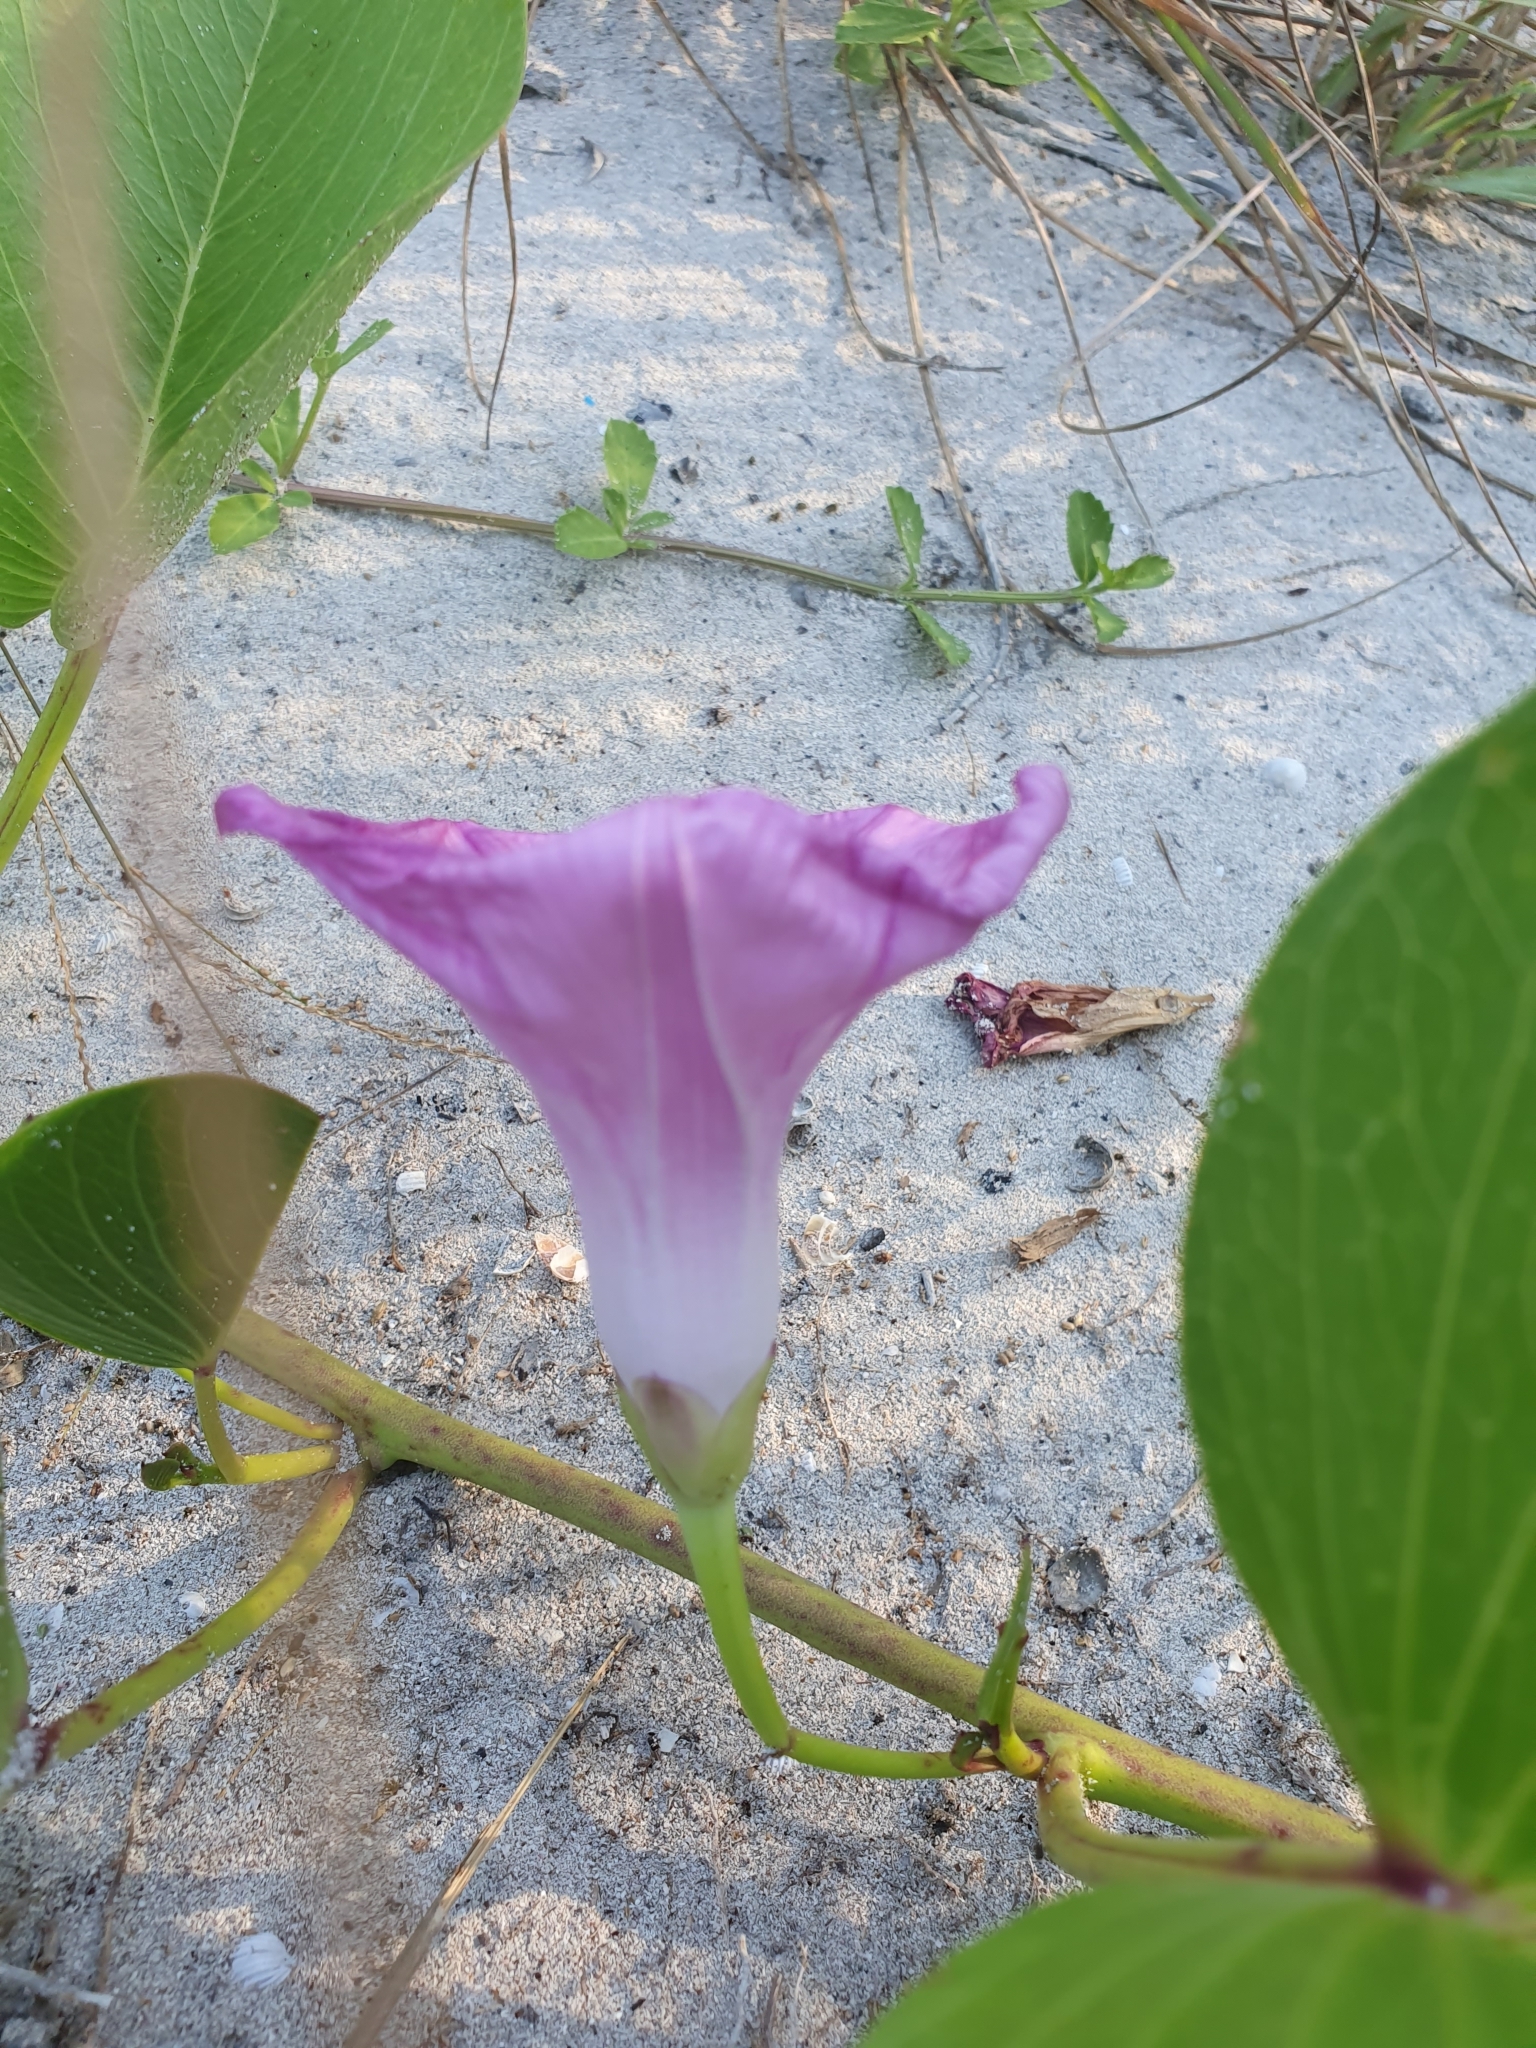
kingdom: Plantae
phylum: Tracheophyta
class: Magnoliopsida
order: Solanales
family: Convolvulaceae
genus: Ipomoea
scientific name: Ipomoea pes-caprae
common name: Beach morning glory
